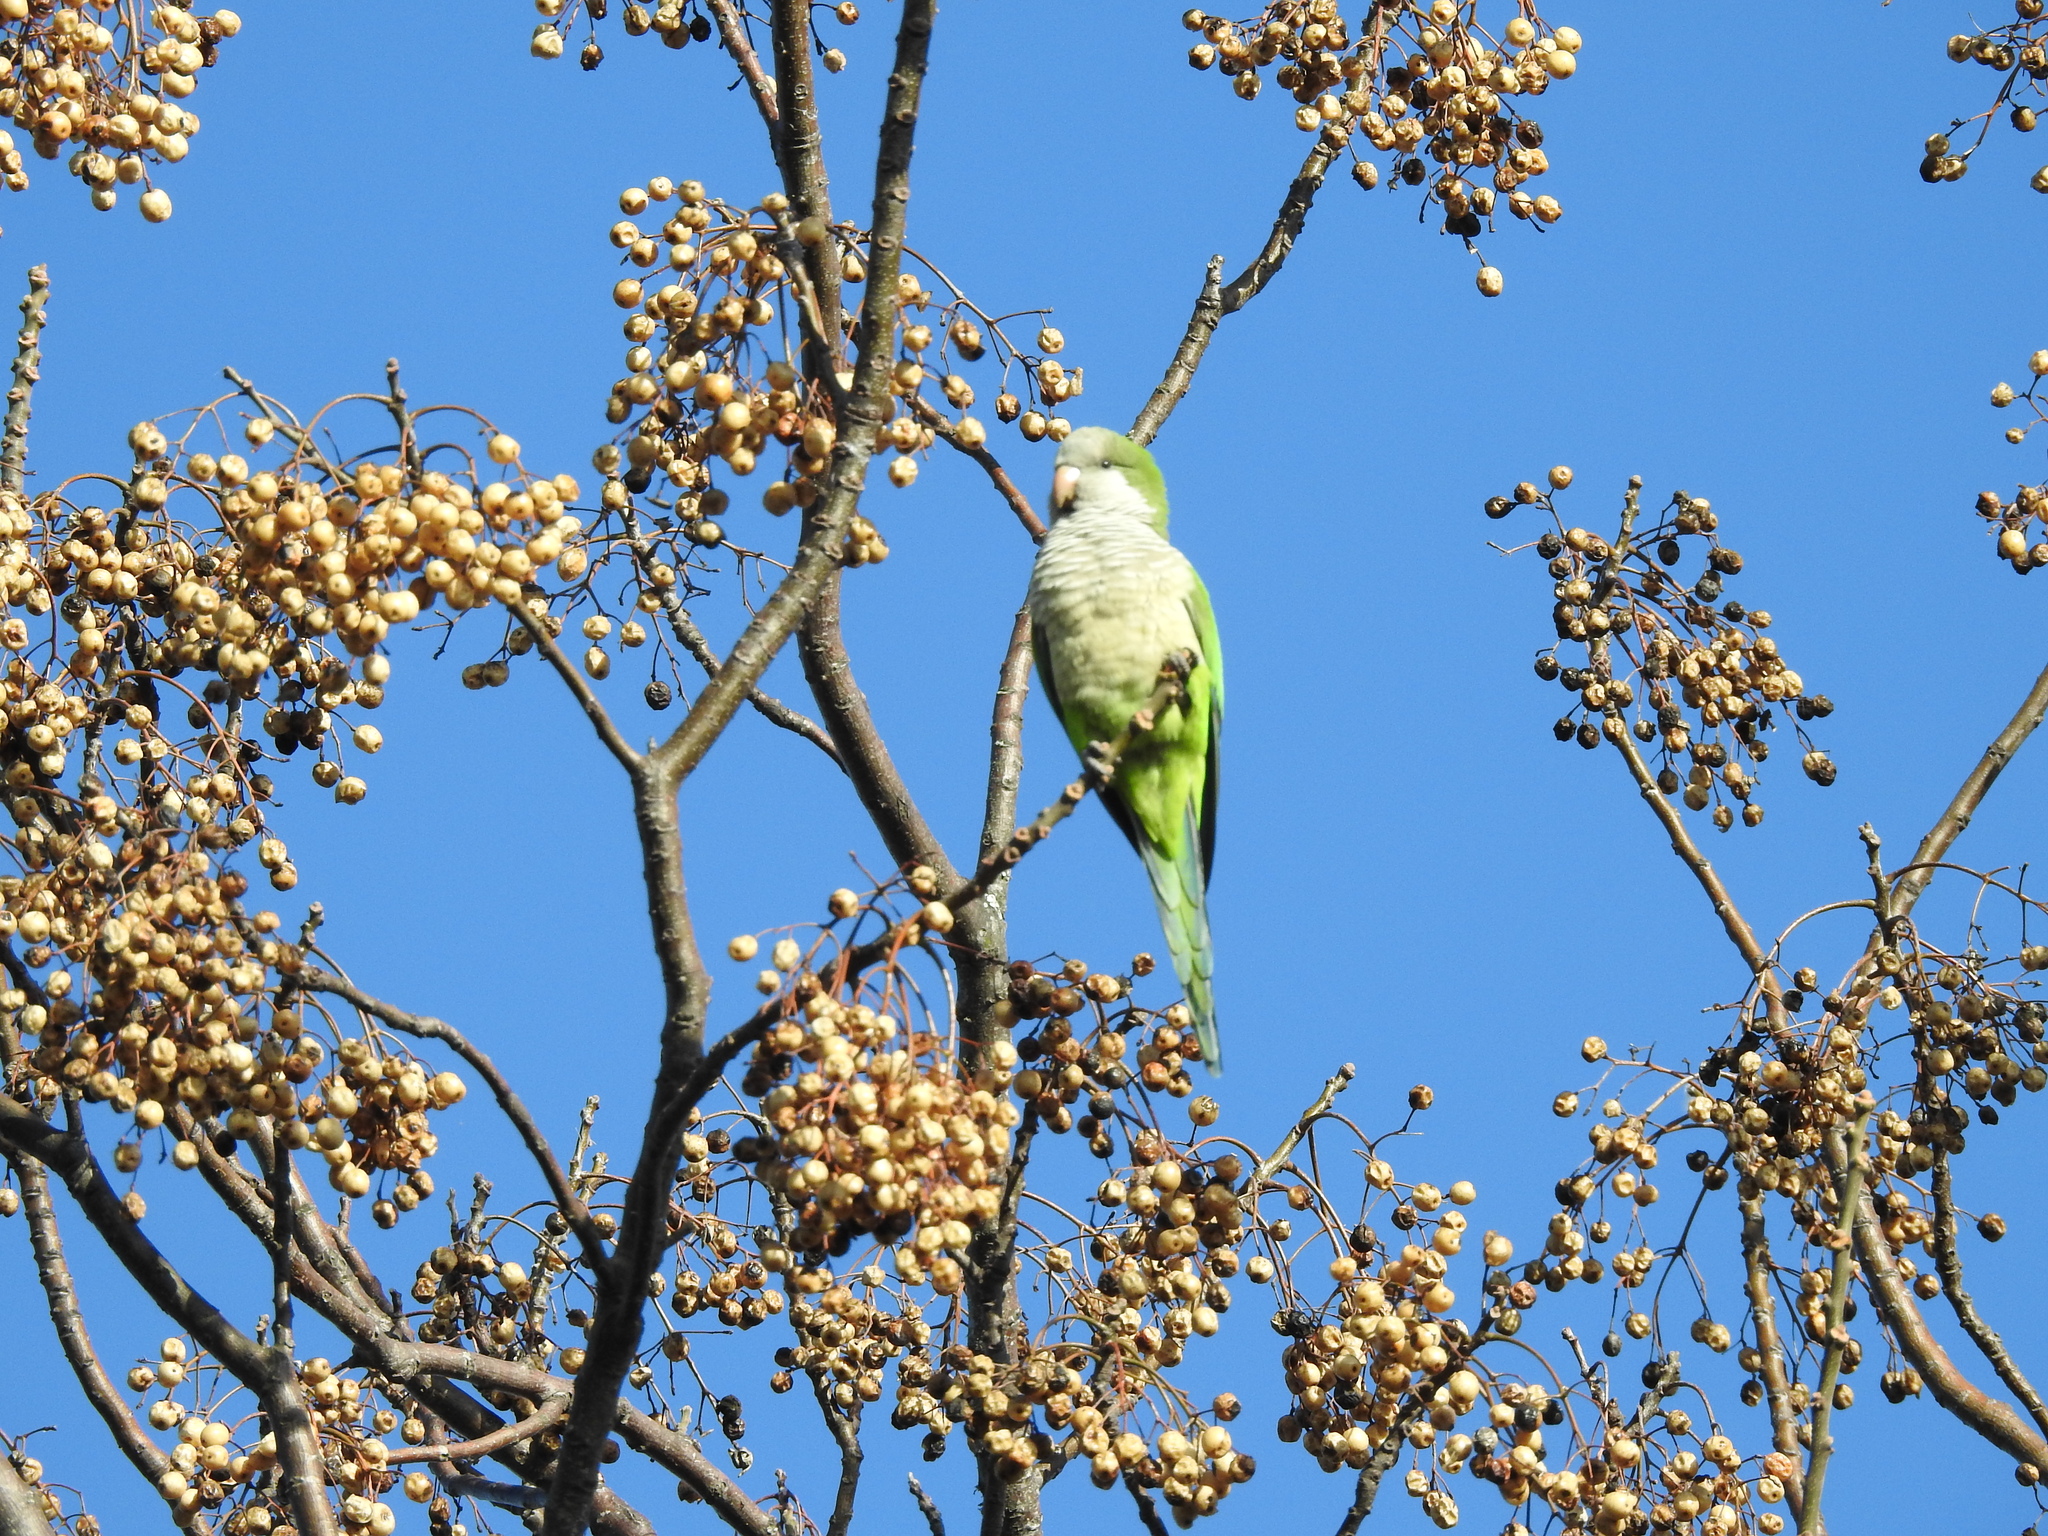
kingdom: Animalia
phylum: Chordata
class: Aves
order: Psittaciformes
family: Psittacidae
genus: Myiopsitta
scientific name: Myiopsitta monachus
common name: Monk parakeet
